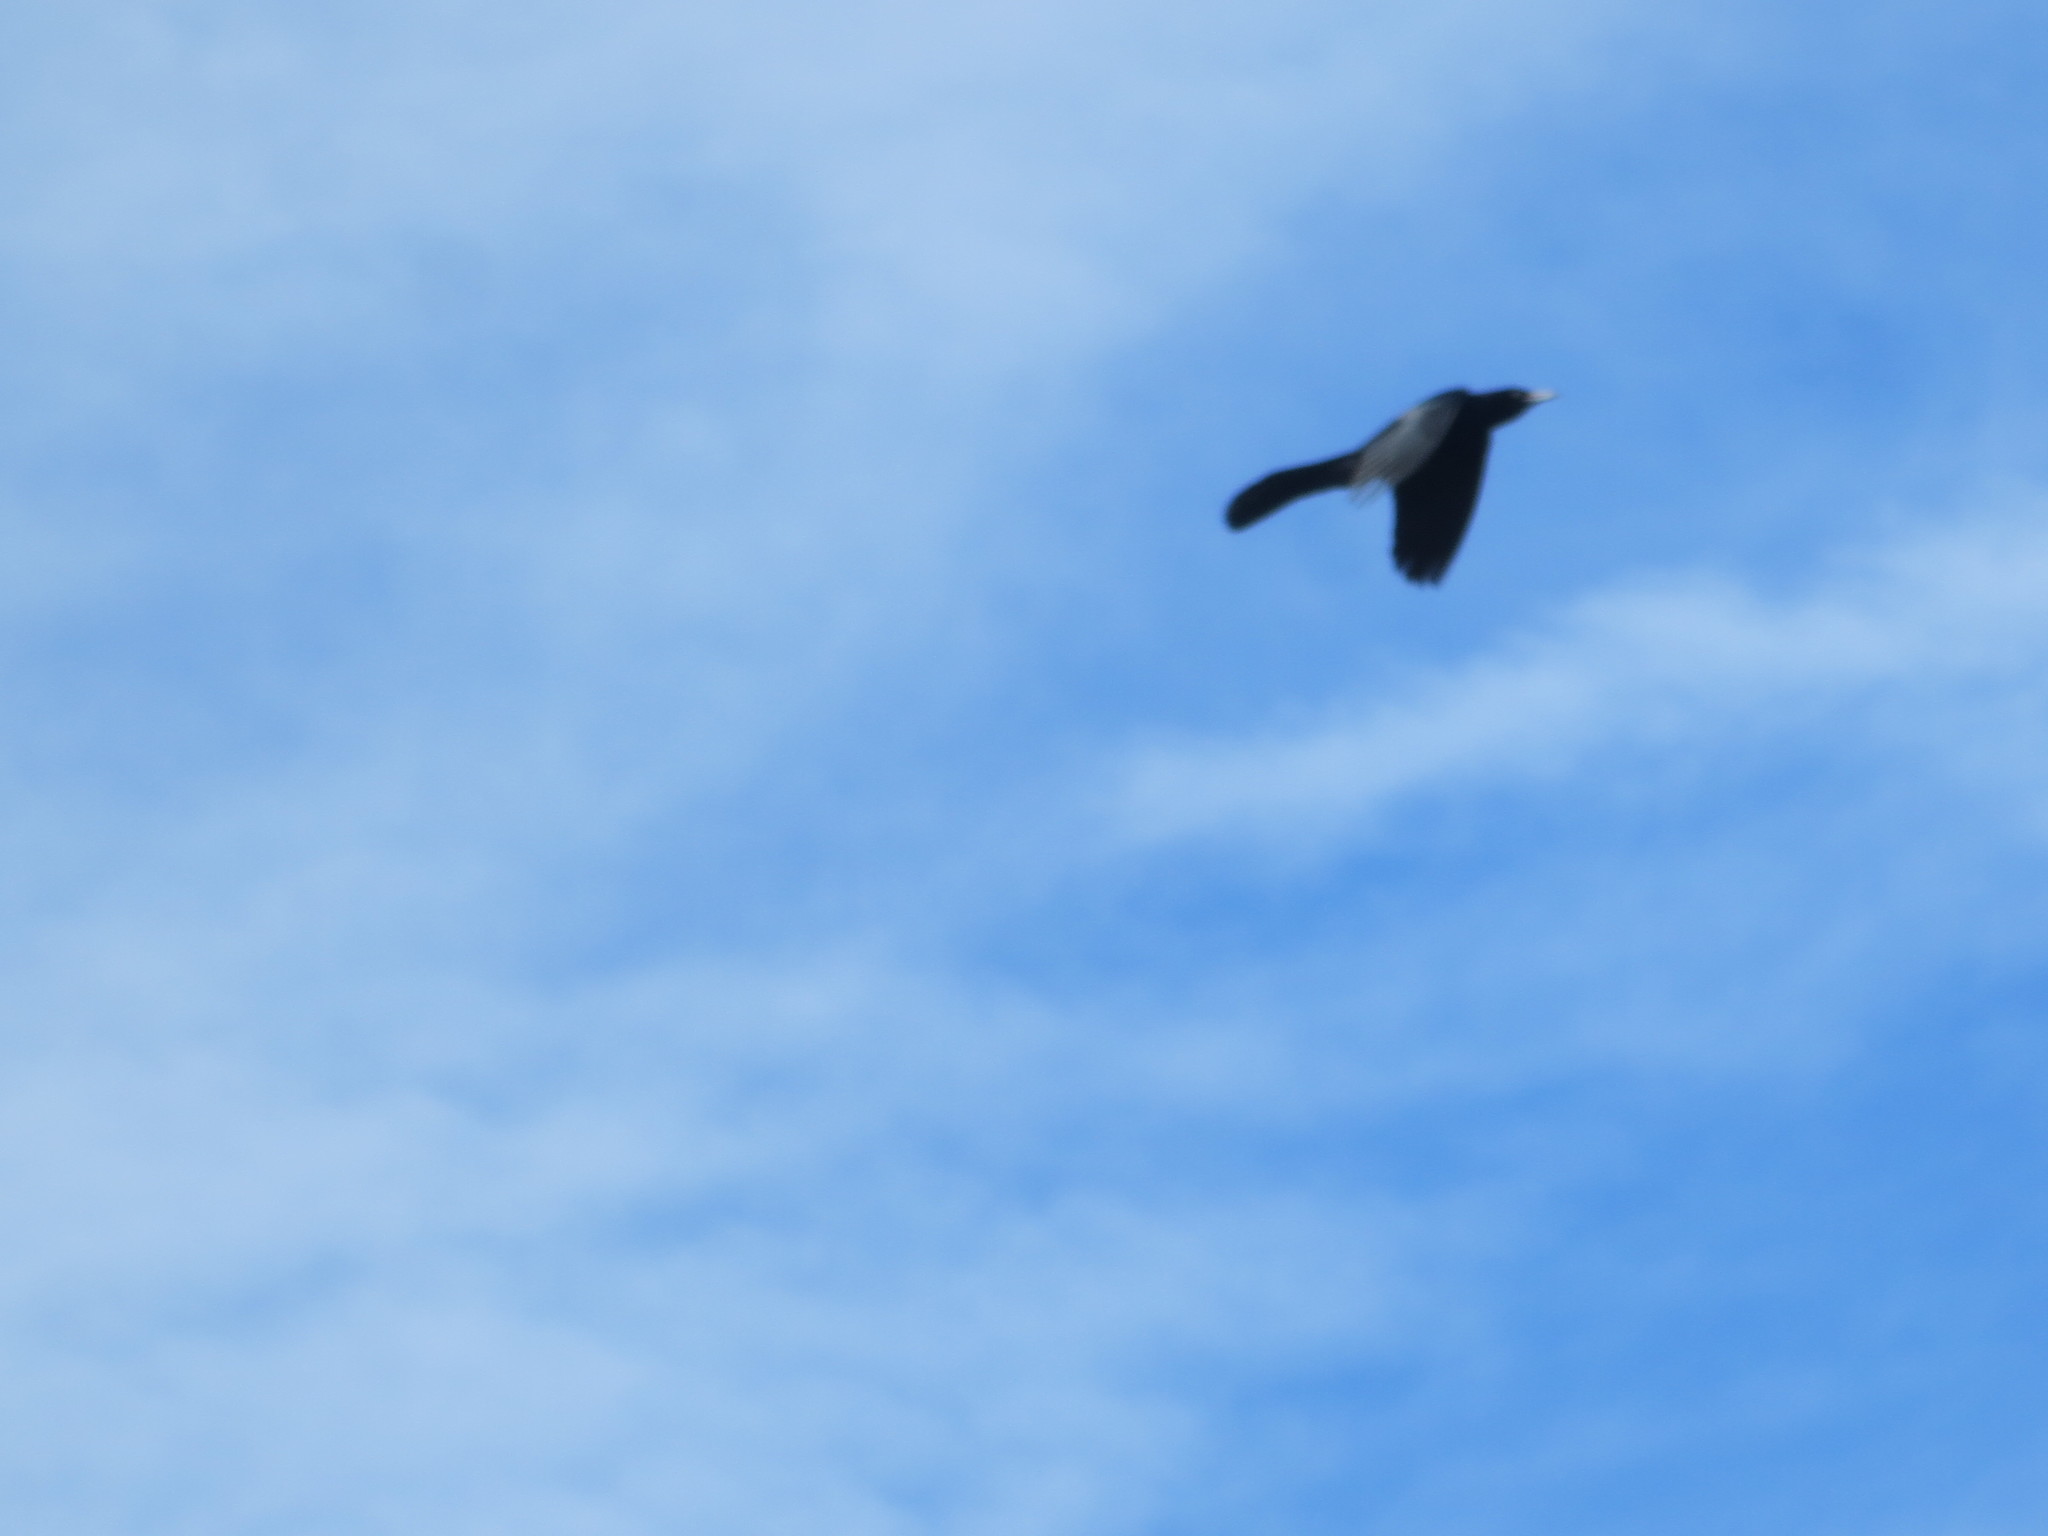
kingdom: Animalia
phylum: Chordata
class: Aves
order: Passeriformes
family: Icteridae
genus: Quiscalus
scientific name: Quiscalus major
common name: Boat-tailed grackle
